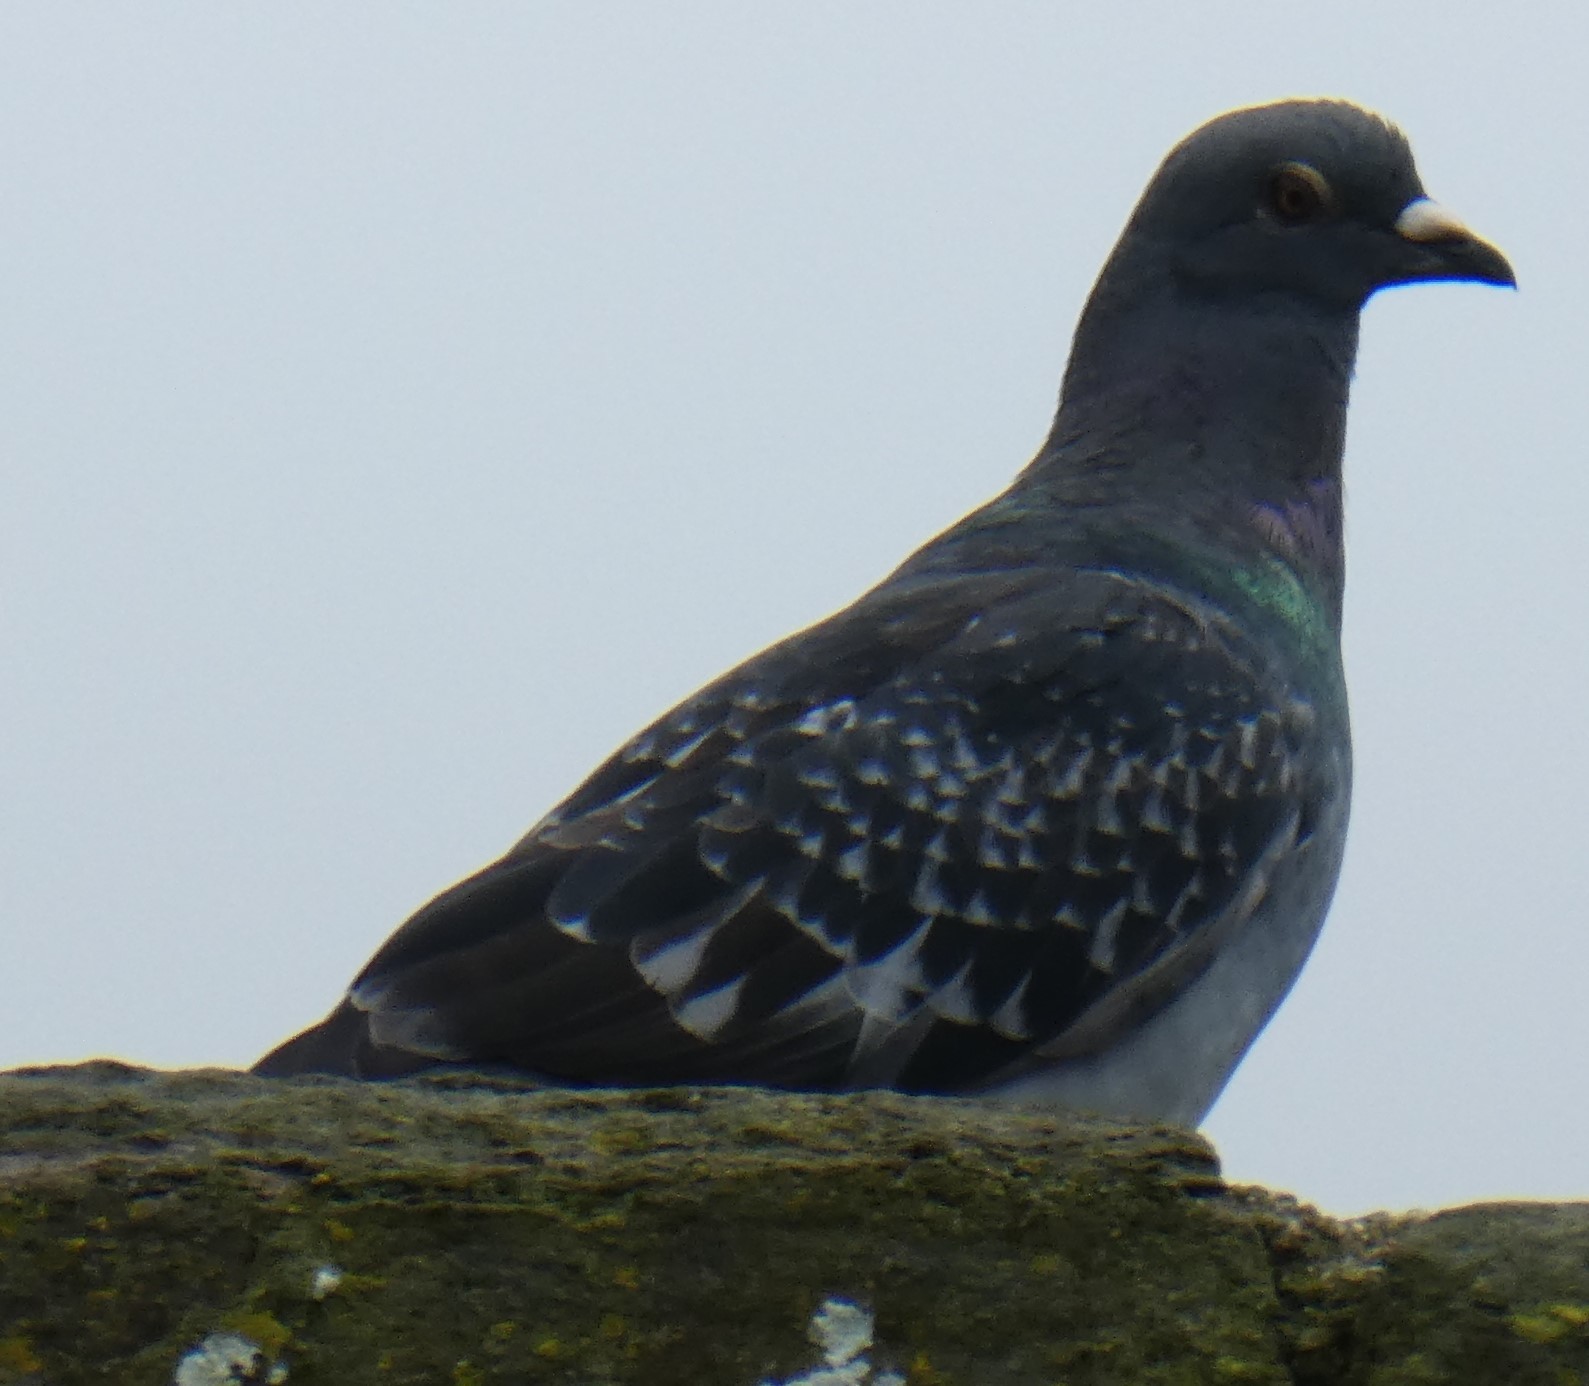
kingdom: Animalia
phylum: Chordata
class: Aves
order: Columbiformes
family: Columbidae
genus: Columba
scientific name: Columba livia
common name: Rock pigeon
